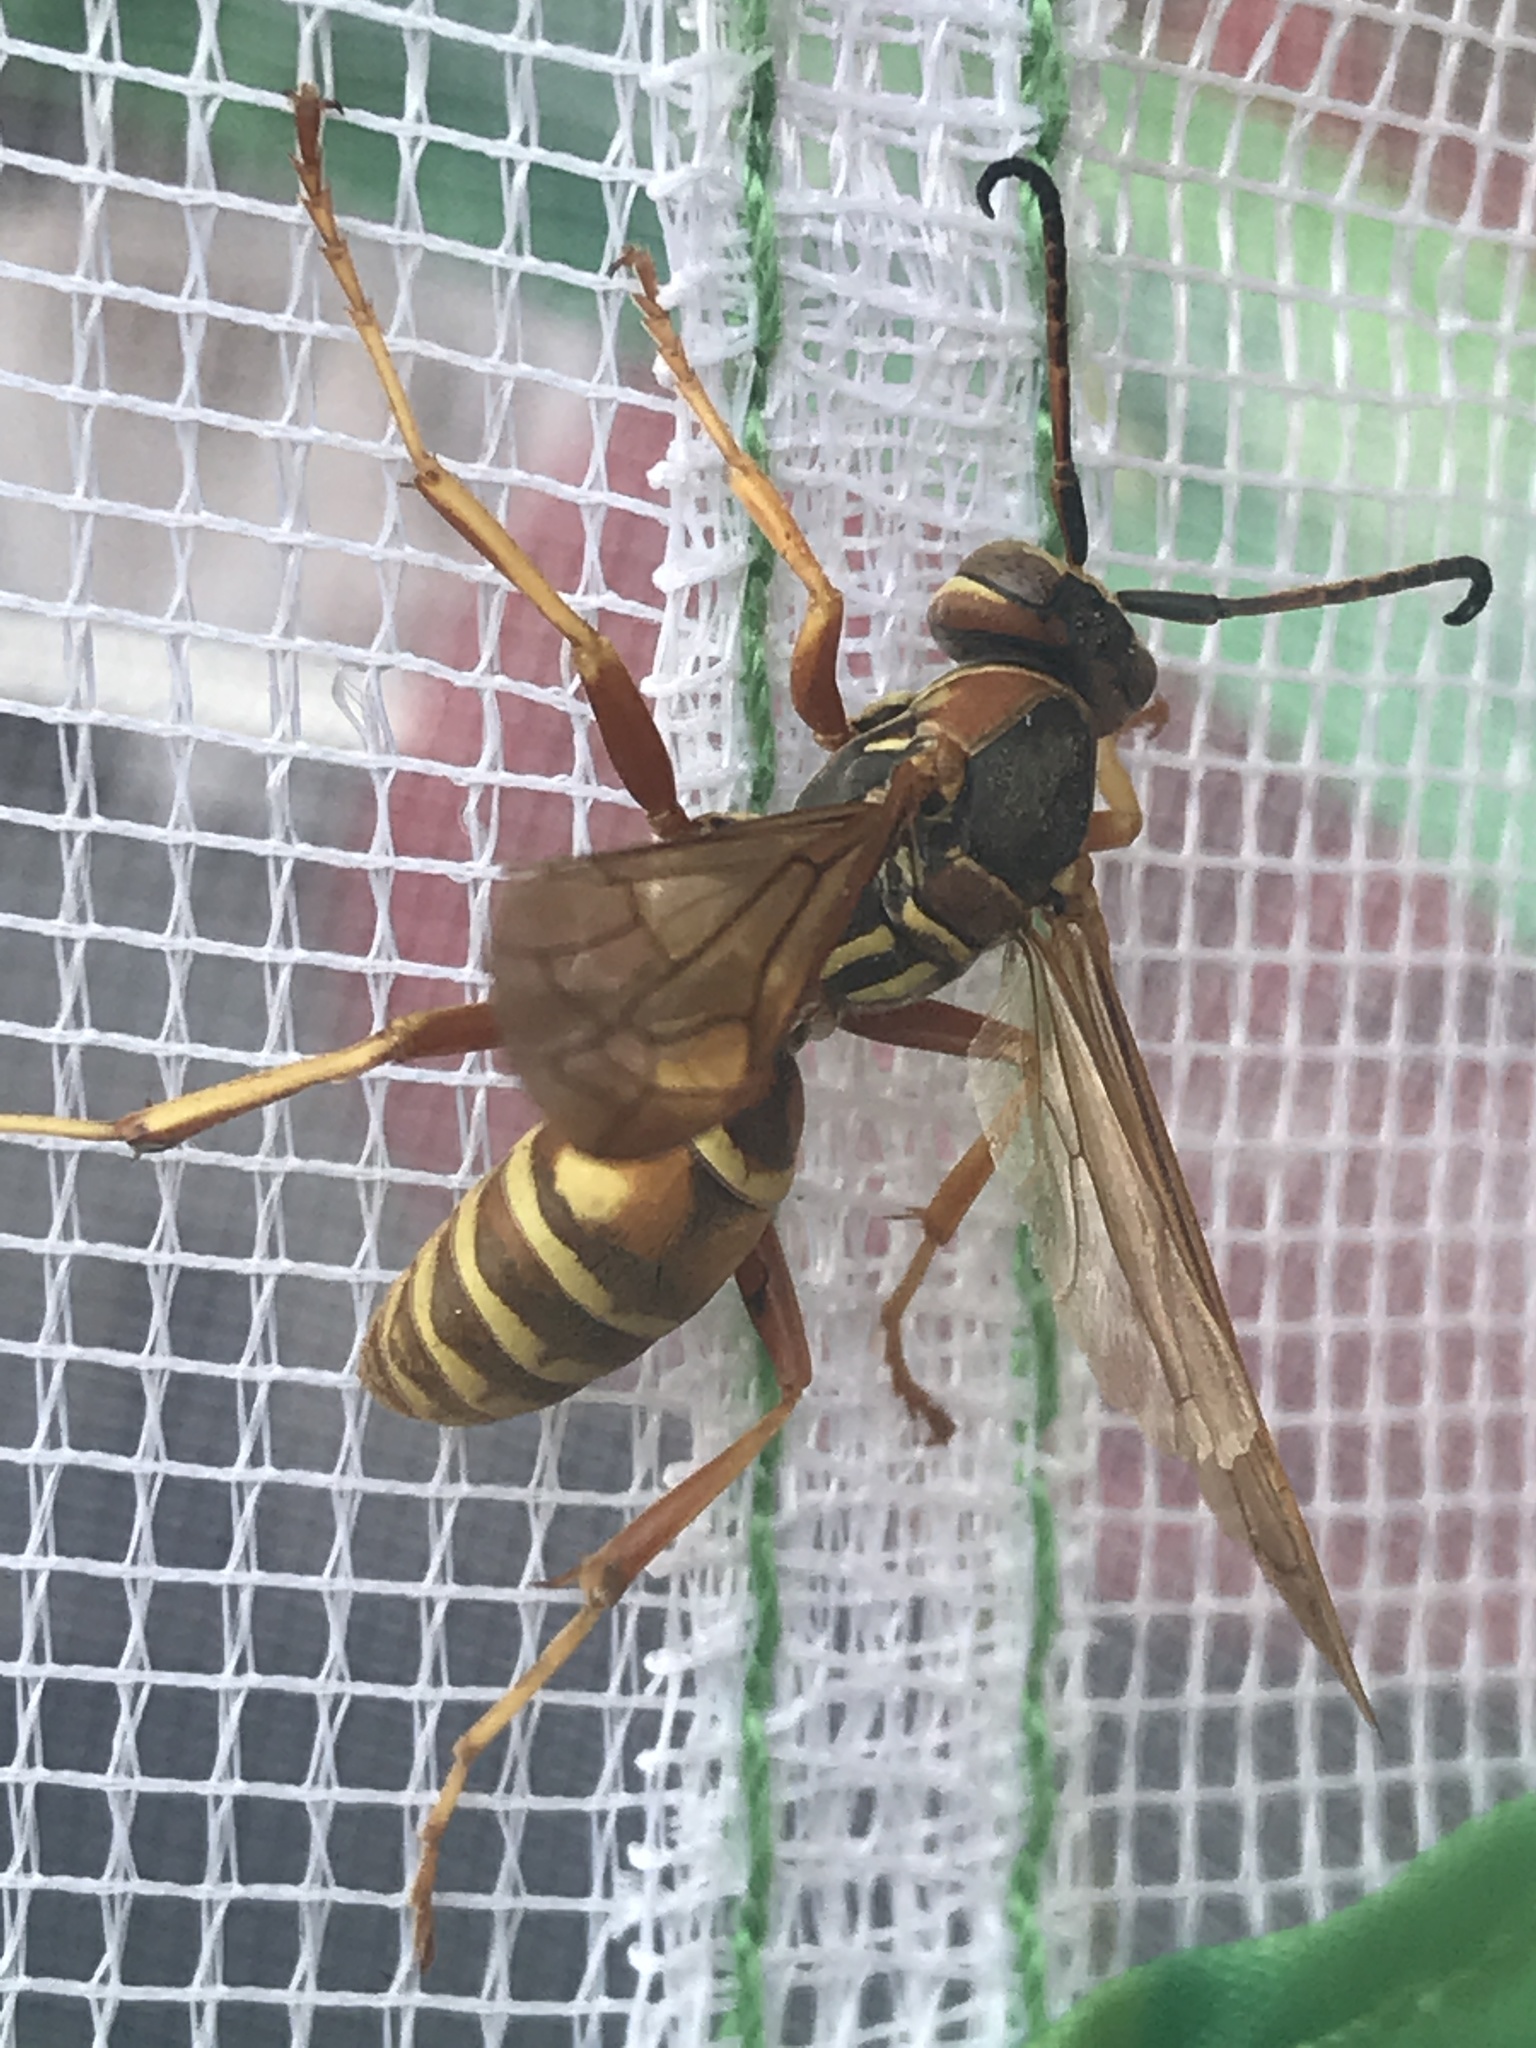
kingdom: Animalia
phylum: Arthropoda
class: Insecta
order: Hymenoptera
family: Eumenidae
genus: Polistes
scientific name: Polistes fuscatus
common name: Dark paper wasp
